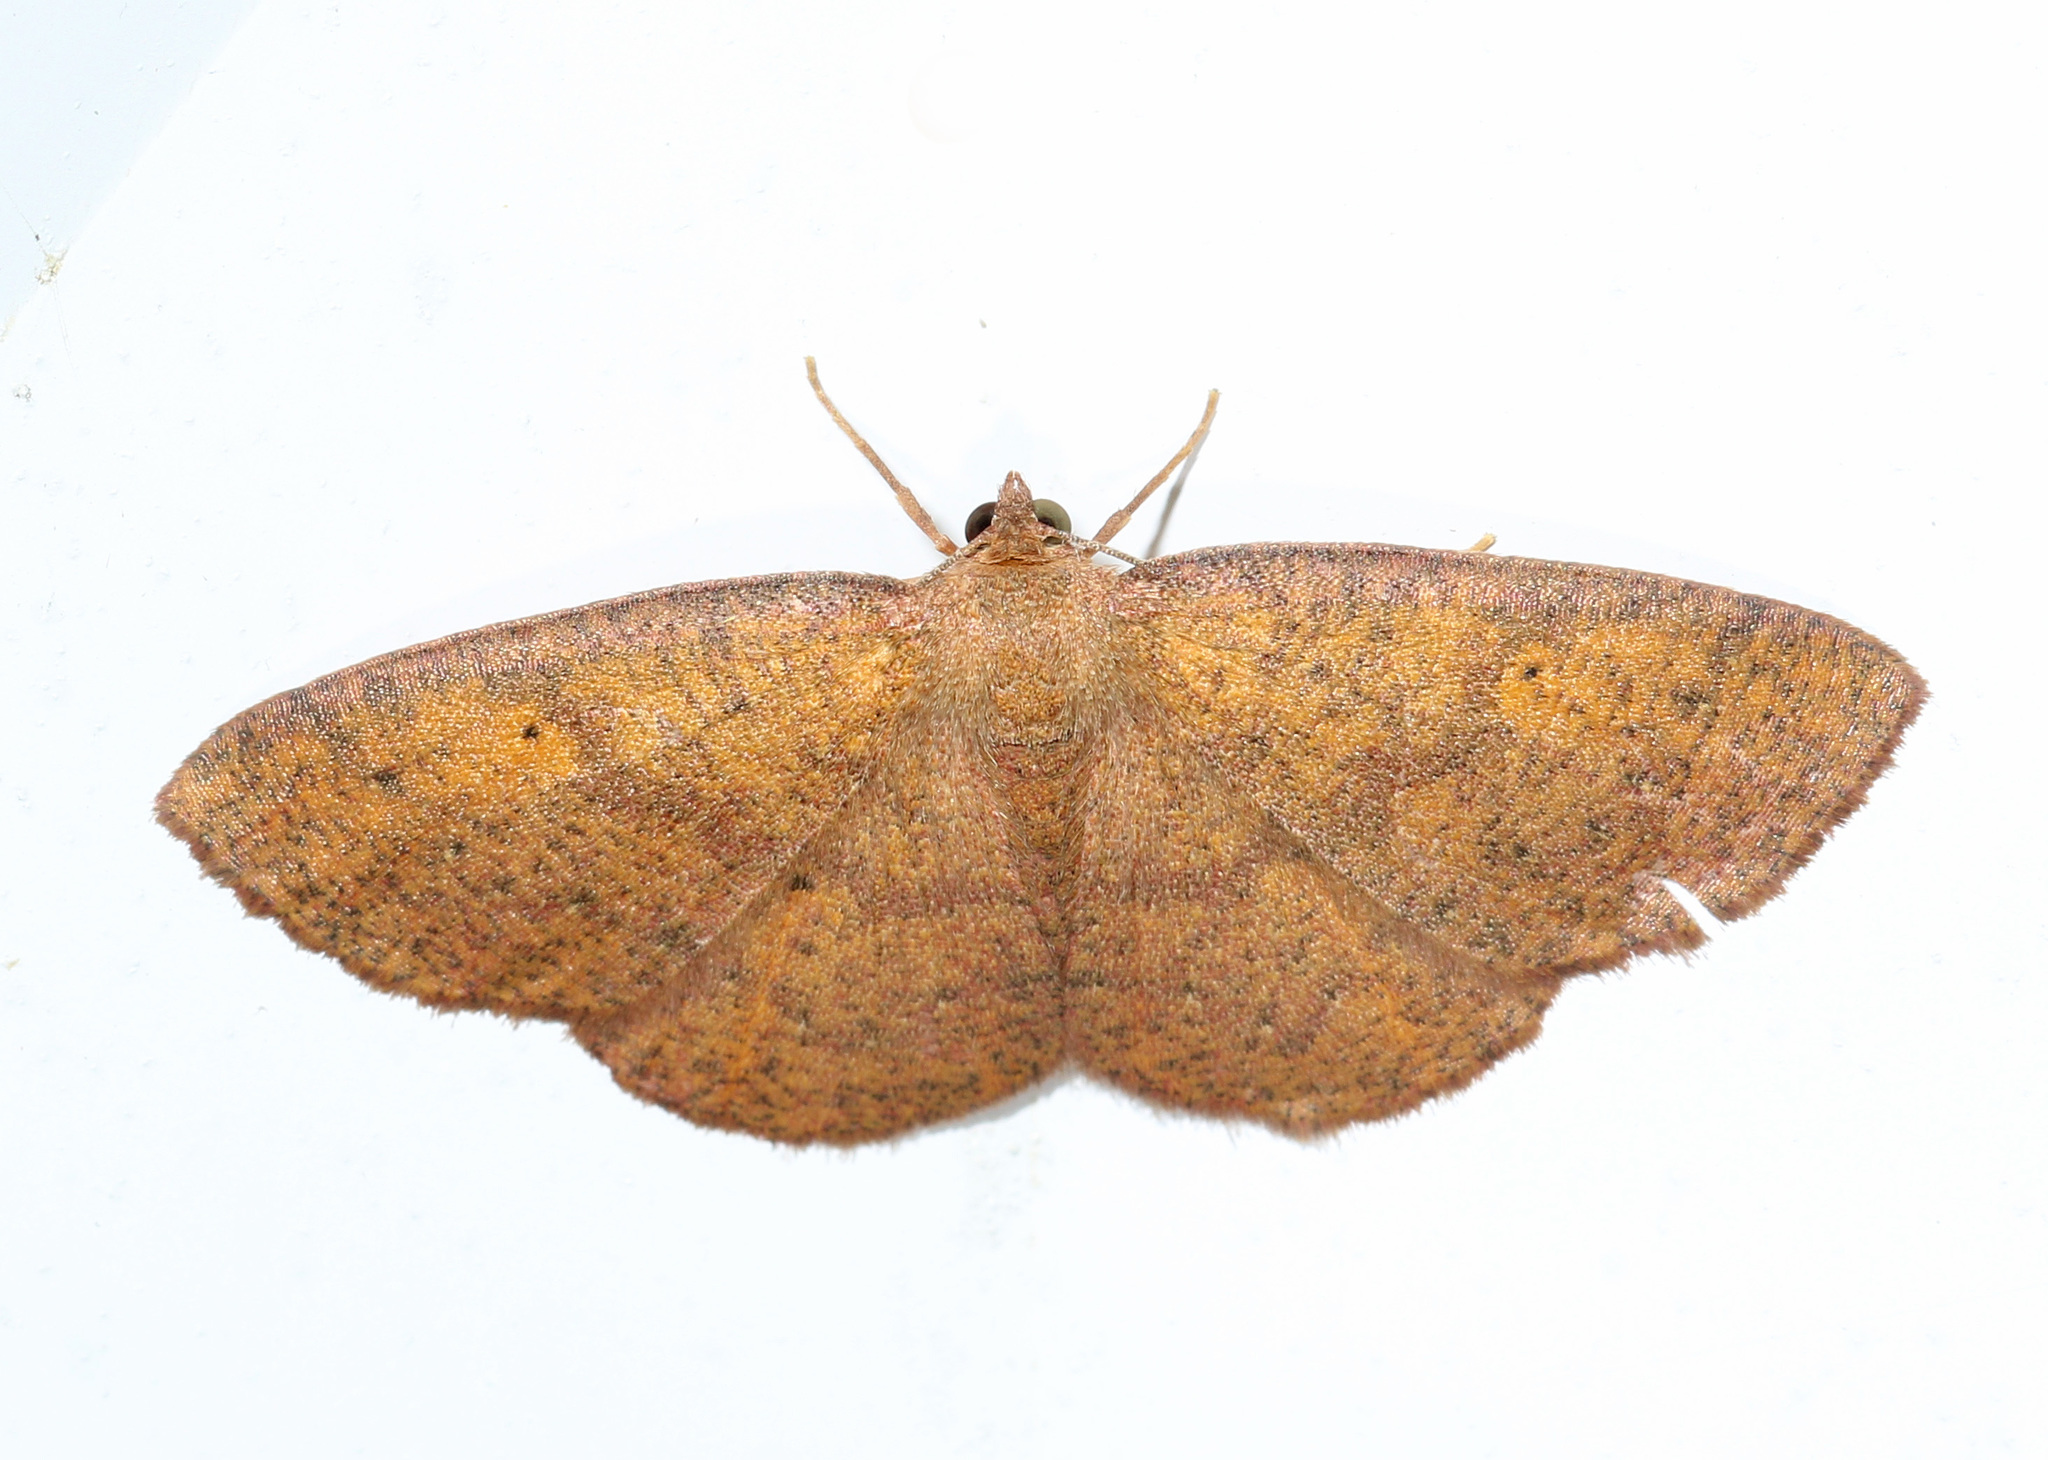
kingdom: Animalia
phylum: Arthropoda
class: Insecta
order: Lepidoptera
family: Geometridae
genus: Ilexia
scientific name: Ilexia intractata
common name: Black-dotted ruddy moth
